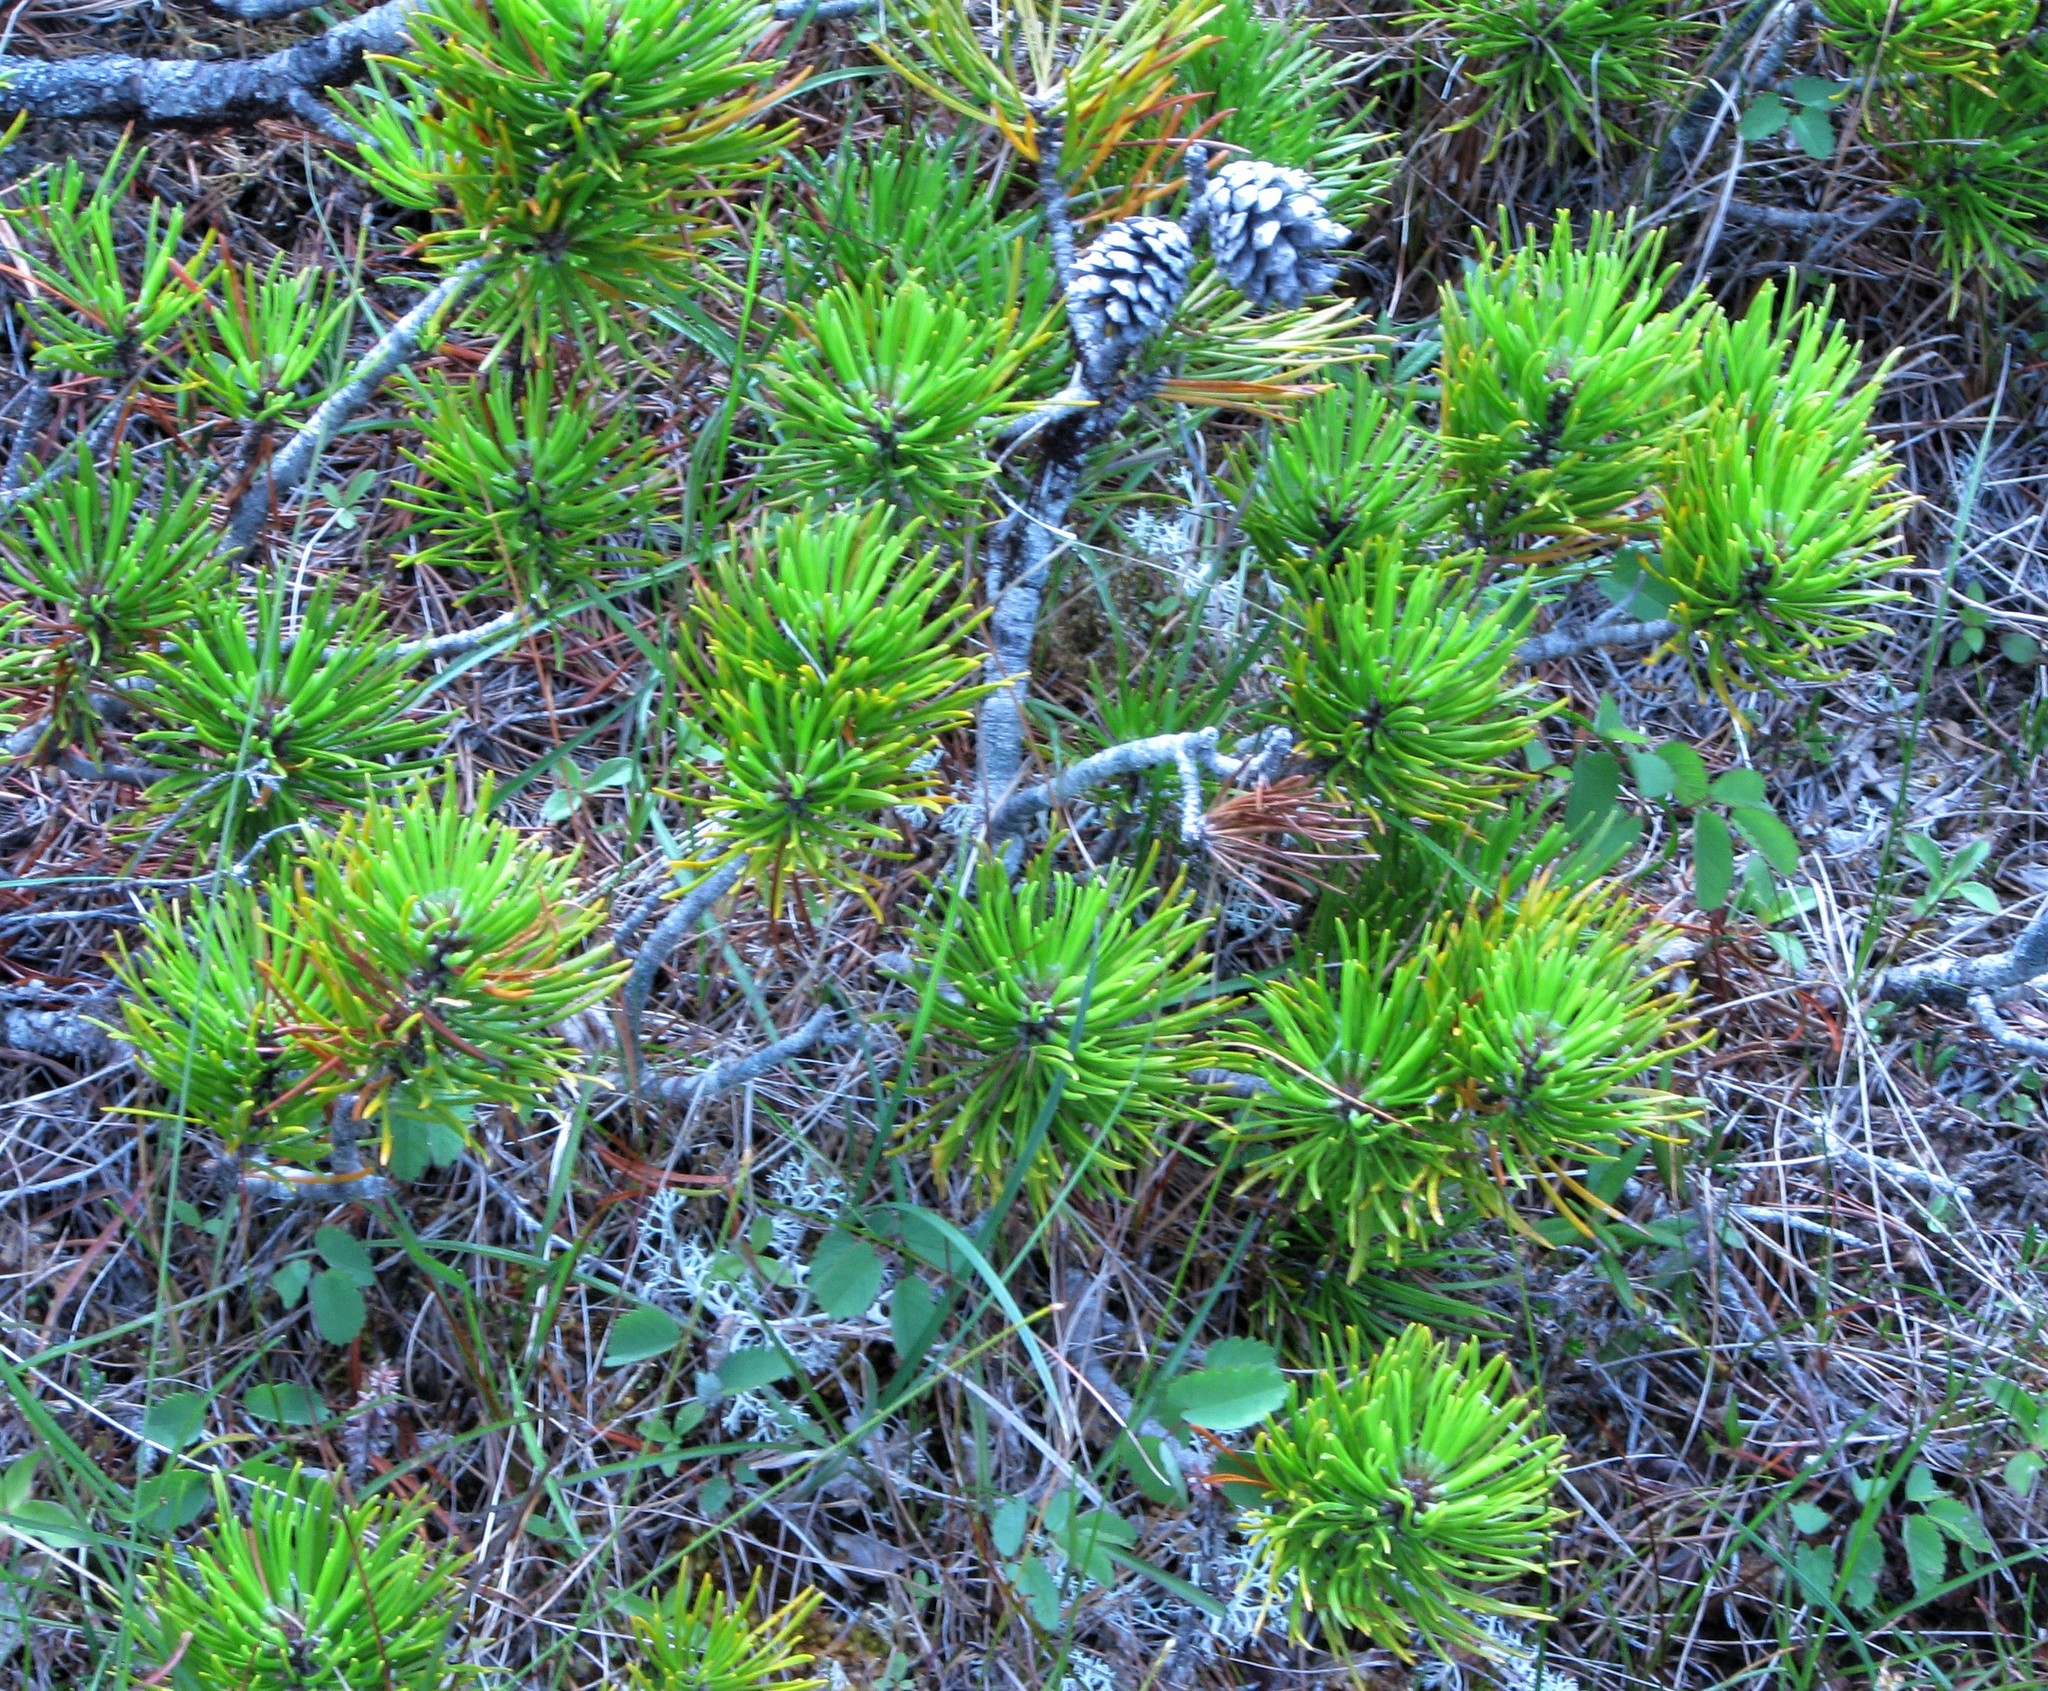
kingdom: Plantae
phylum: Tracheophyta
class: Pinopsida
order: Pinales
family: Pinaceae
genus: Pinus
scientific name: Pinus contorta
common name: Lodgepole pine
